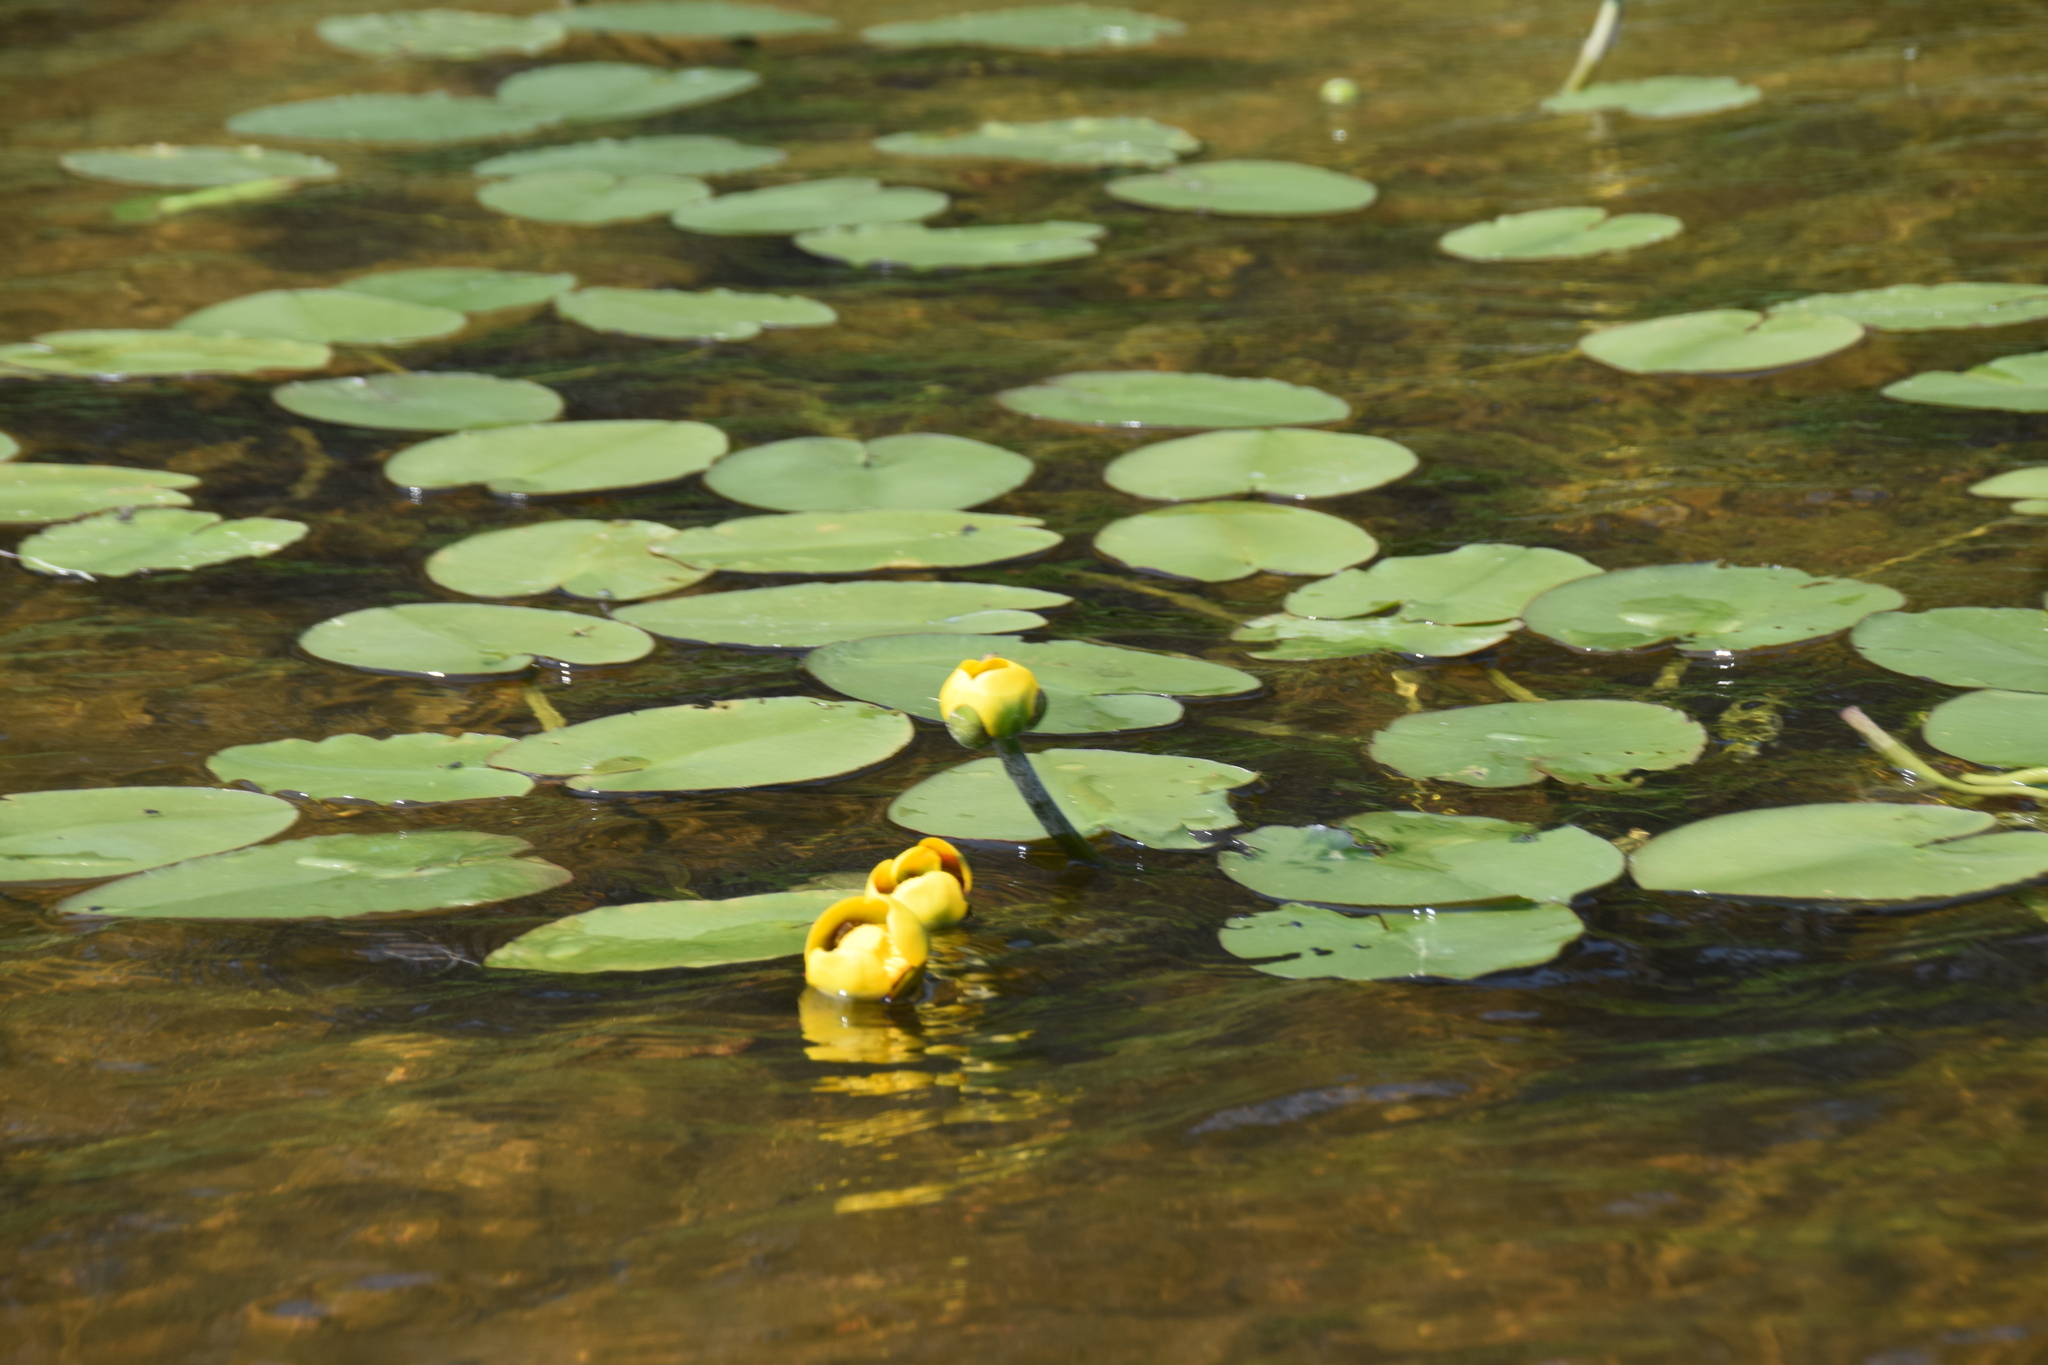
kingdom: Plantae
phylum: Tracheophyta
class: Magnoliopsida
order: Nymphaeales
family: Nymphaeaceae
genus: Nuphar
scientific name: Nuphar variegata
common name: Beaver-root
